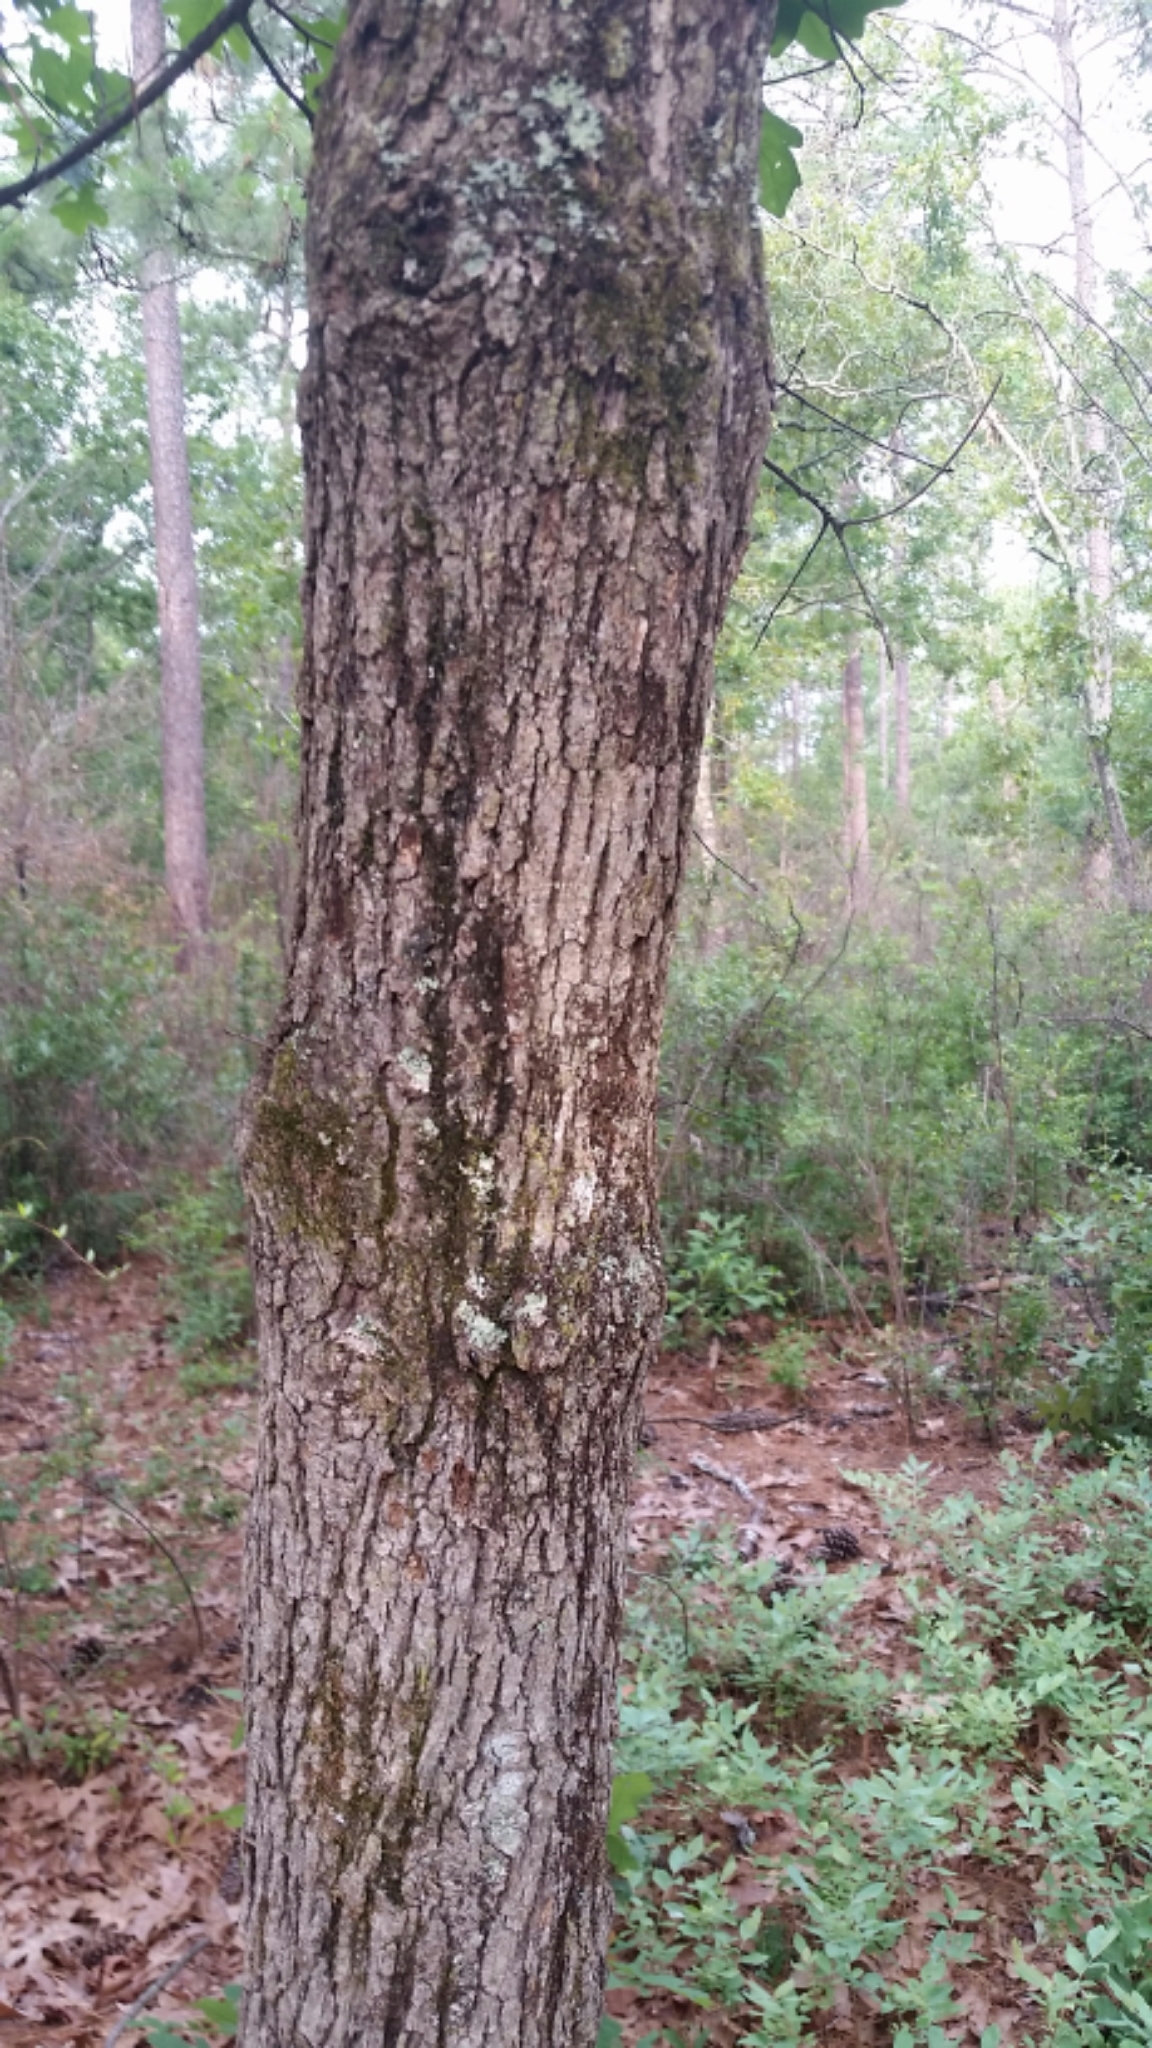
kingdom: Plantae
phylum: Tracheophyta
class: Magnoliopsida
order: Fagales
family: Fagaceae
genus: Quercus
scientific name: Quercus margaretiae
